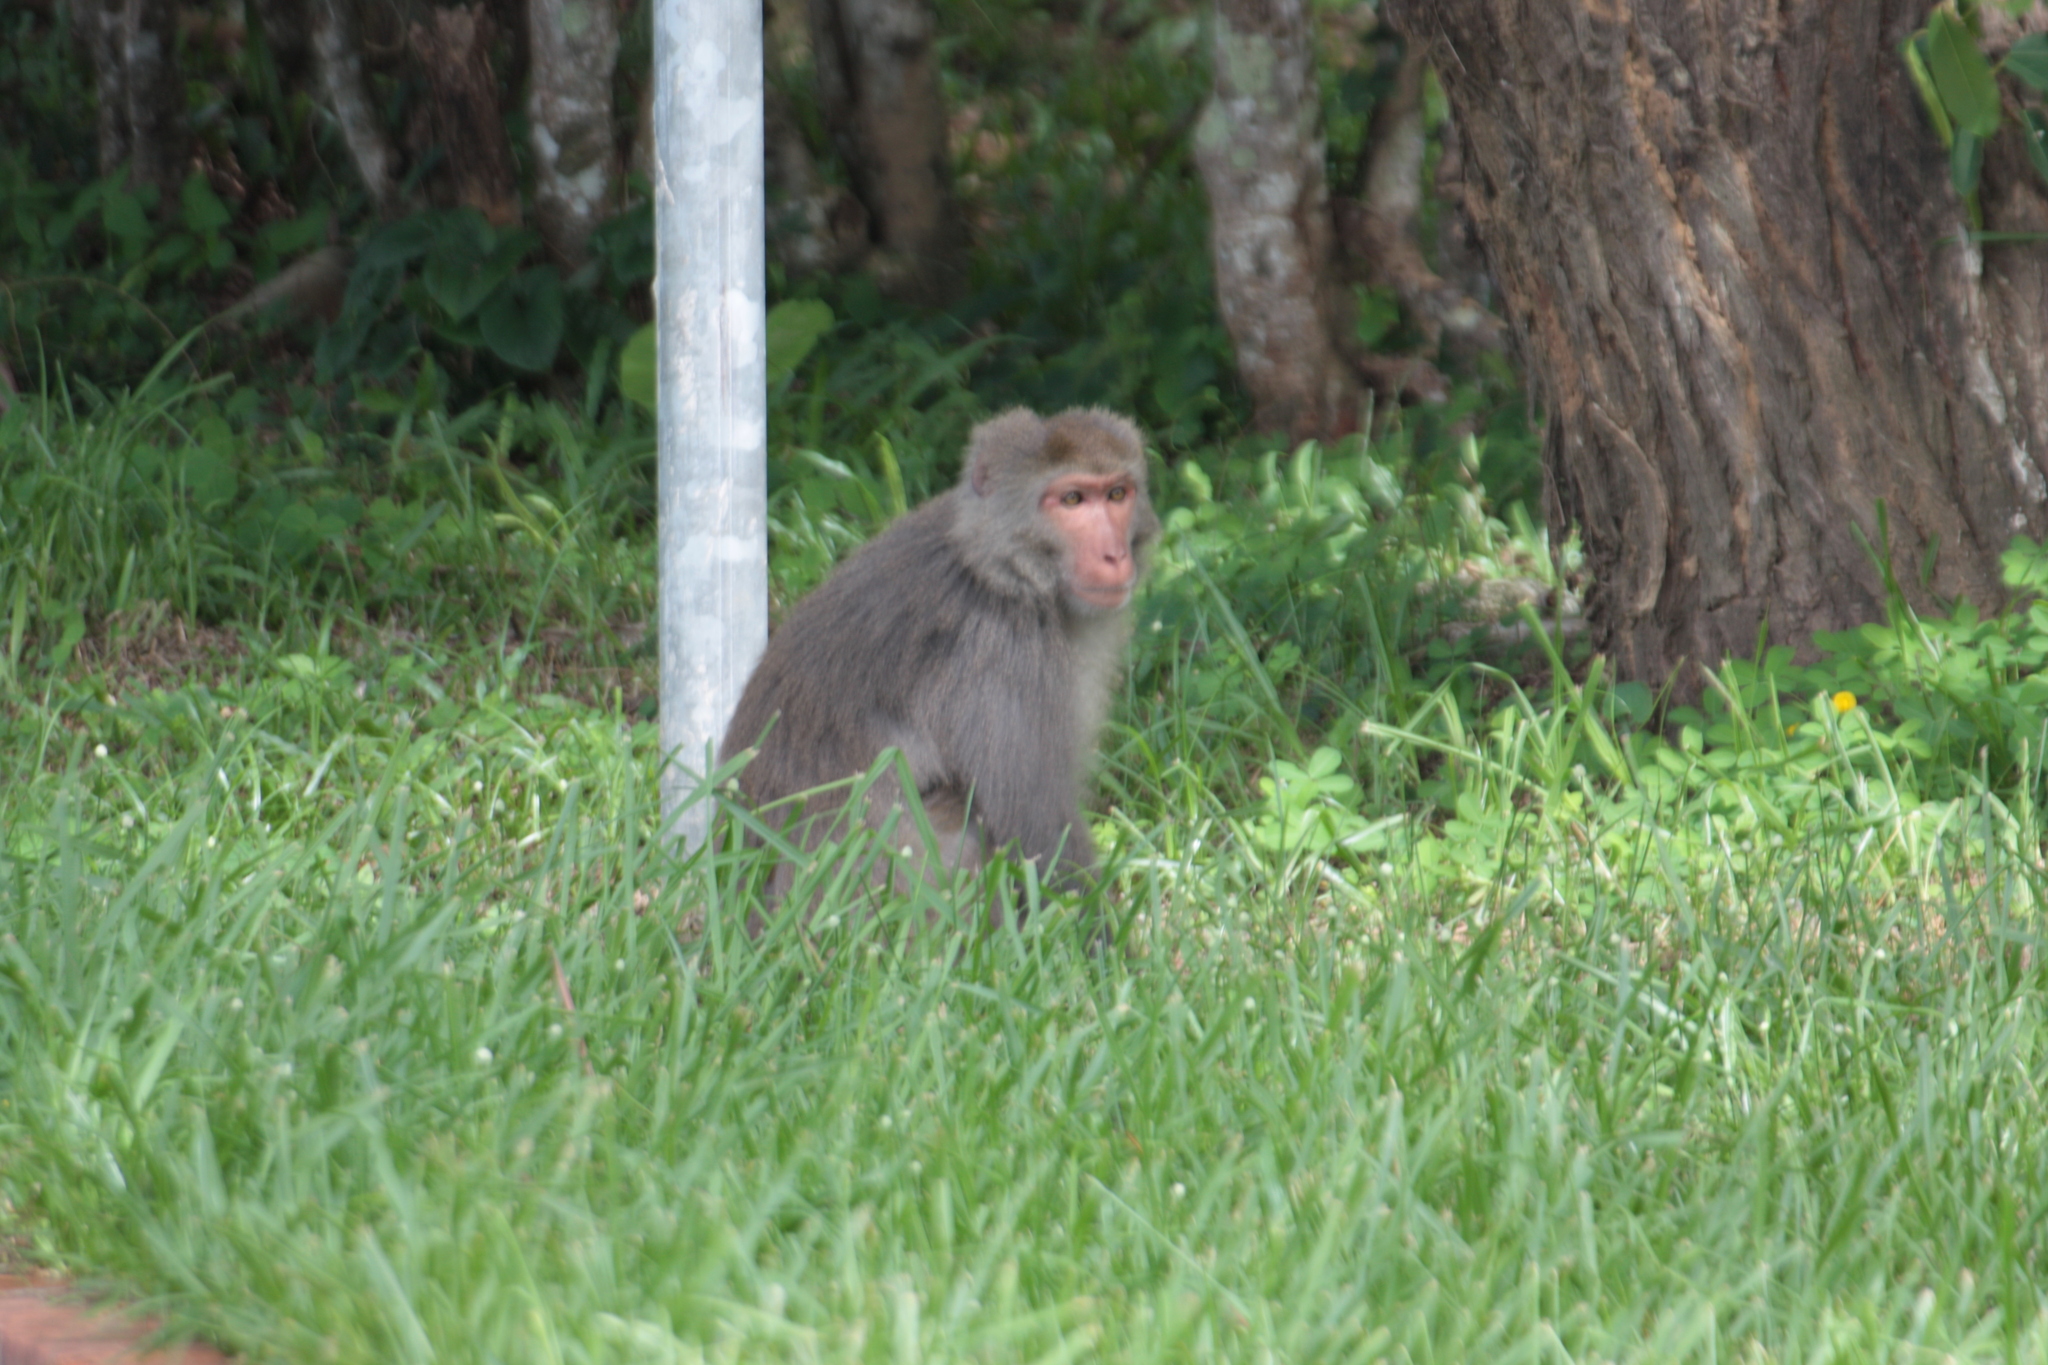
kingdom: Animalia
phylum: Chordata
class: Mammalia
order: Primates
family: Cercopithecidae
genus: Macaca
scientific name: Macaca cyclopis
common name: Formosan rock macaque
